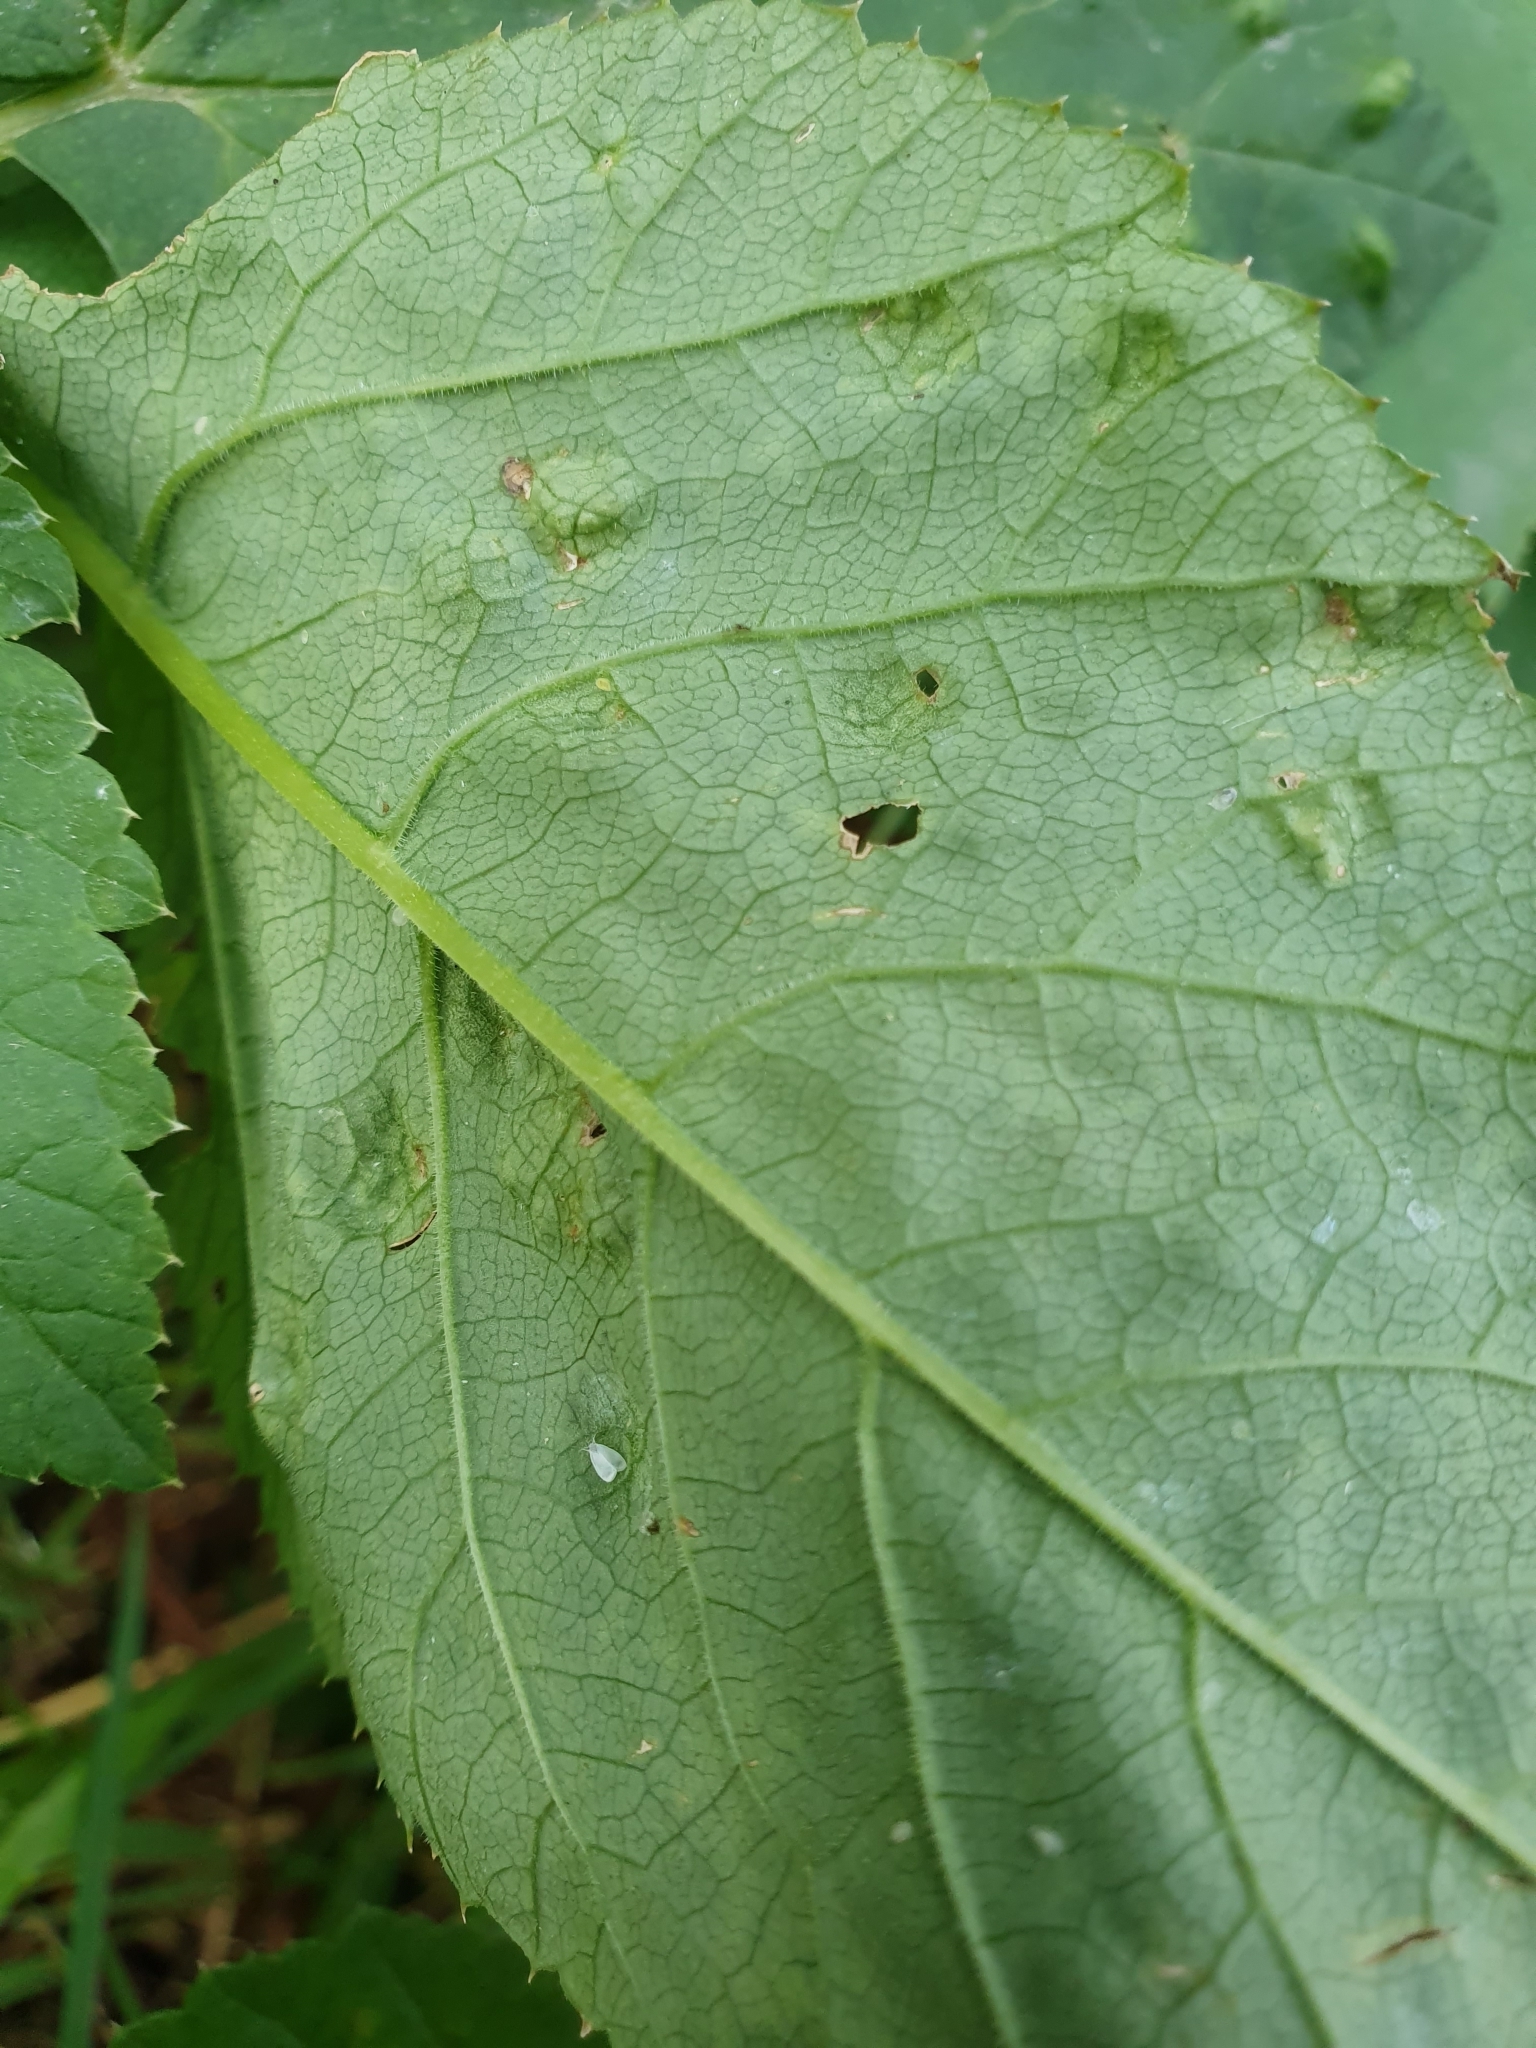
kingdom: Animalia
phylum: Arthropoda
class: Insecta
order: Hemiptera
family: Triozidae
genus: Trioza
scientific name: Trioza flavipennis
